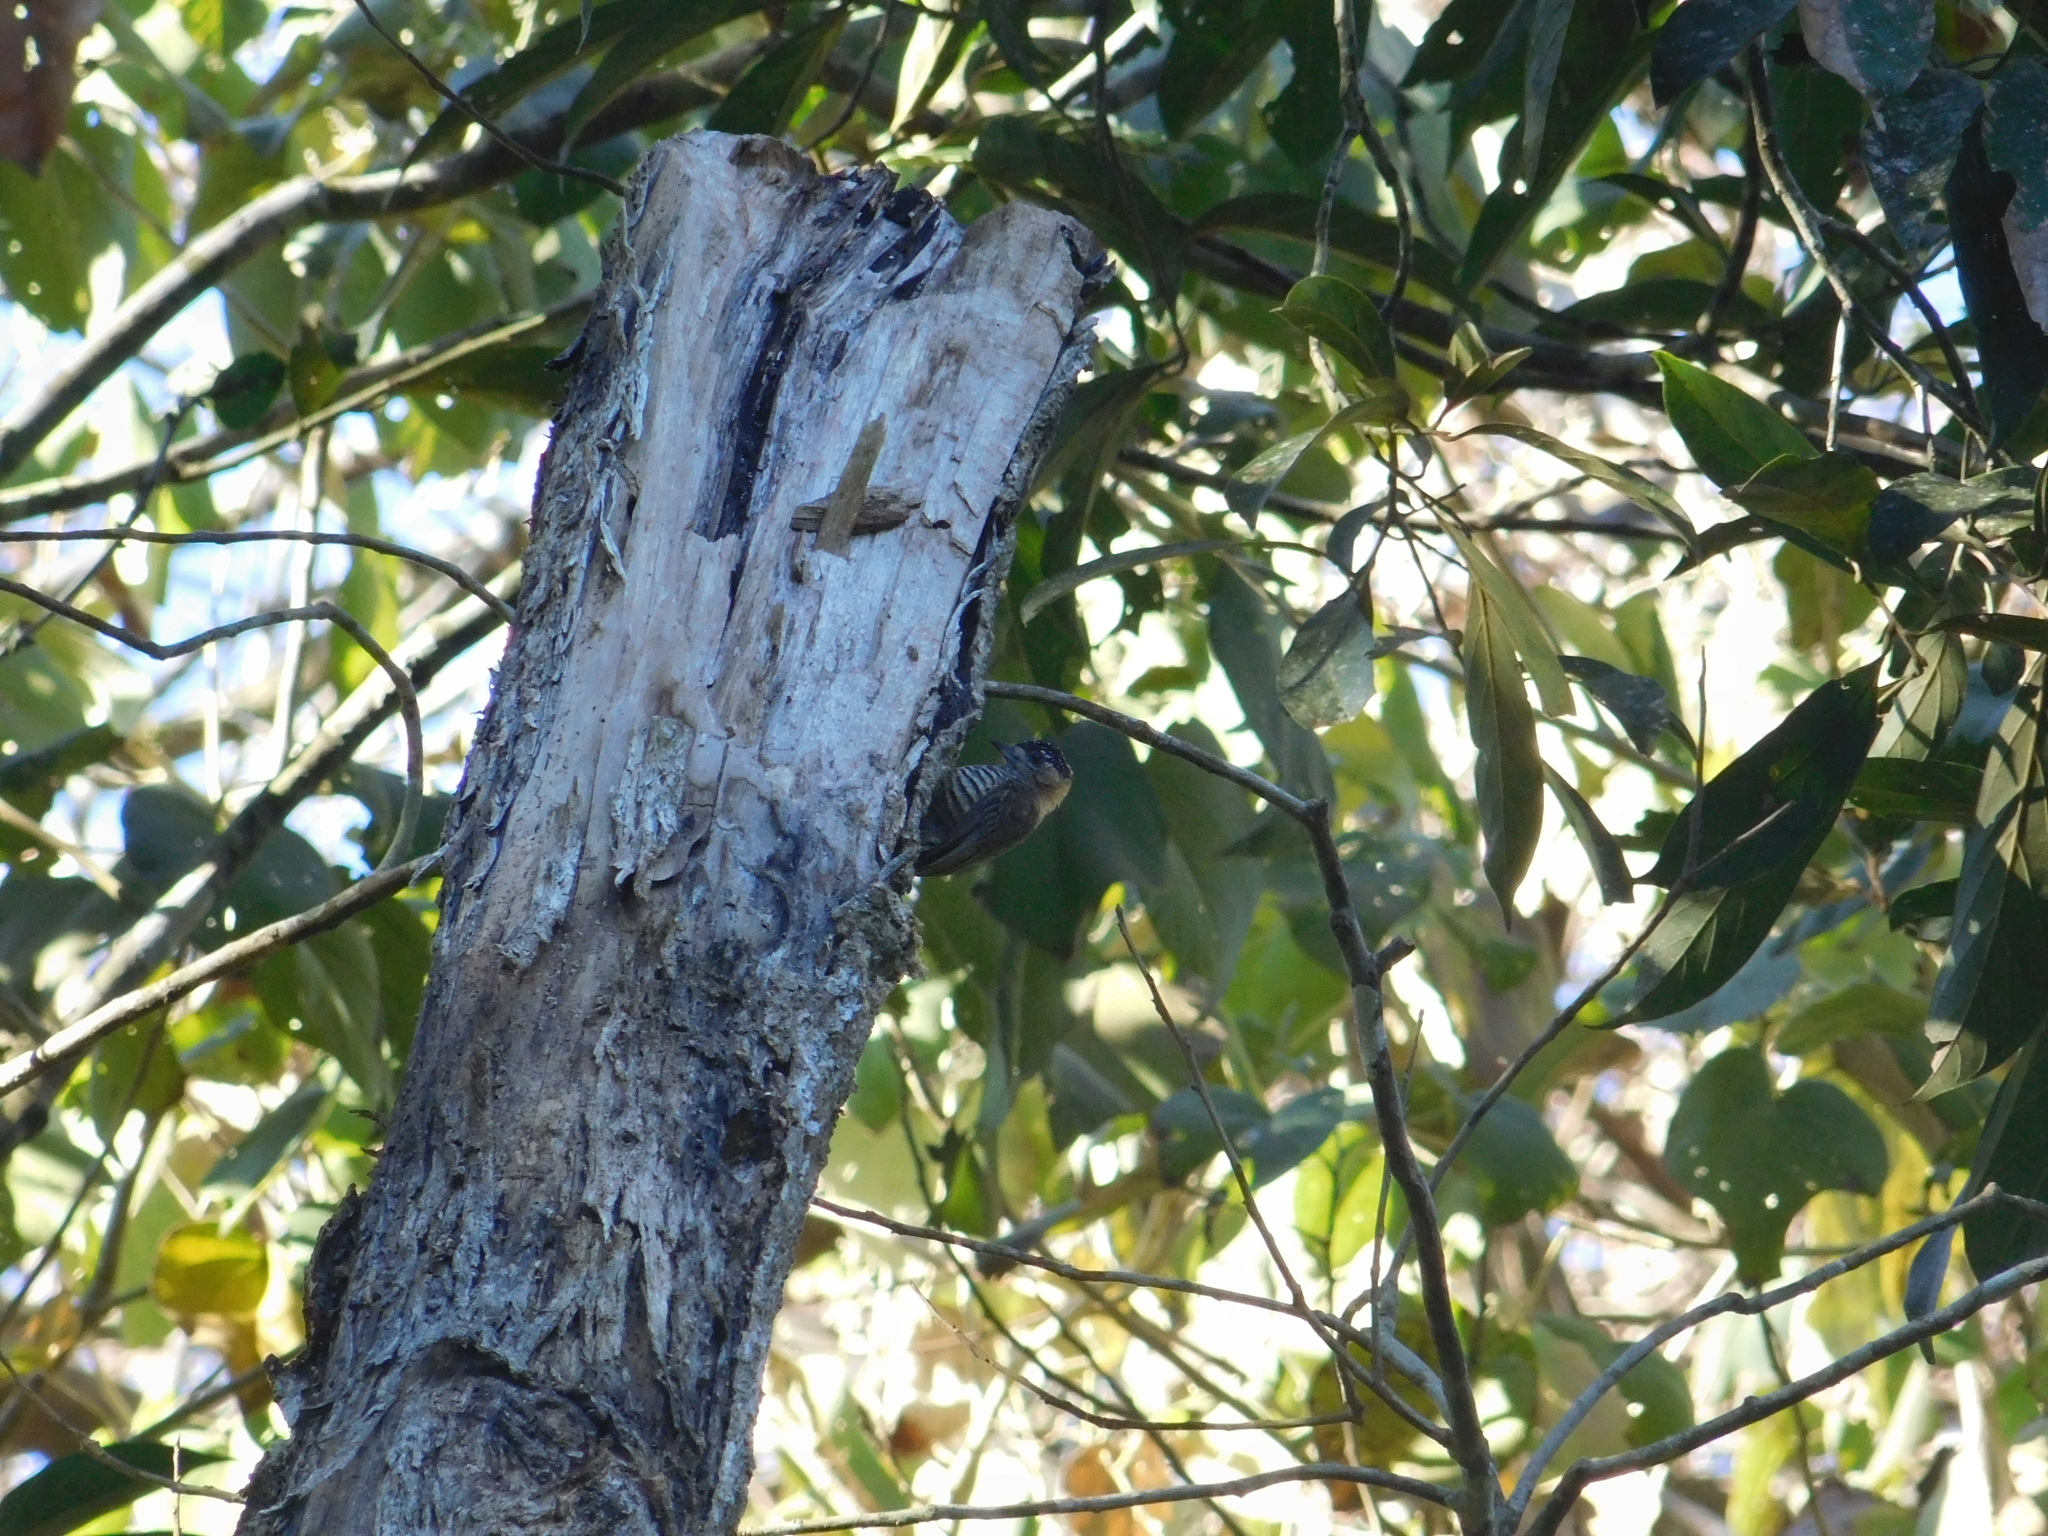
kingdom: Animalia
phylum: Chordata
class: Aves
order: Piciformes
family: Picidae
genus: Picumnus
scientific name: Picumnus temminckii
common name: Ochre-collared piculet
